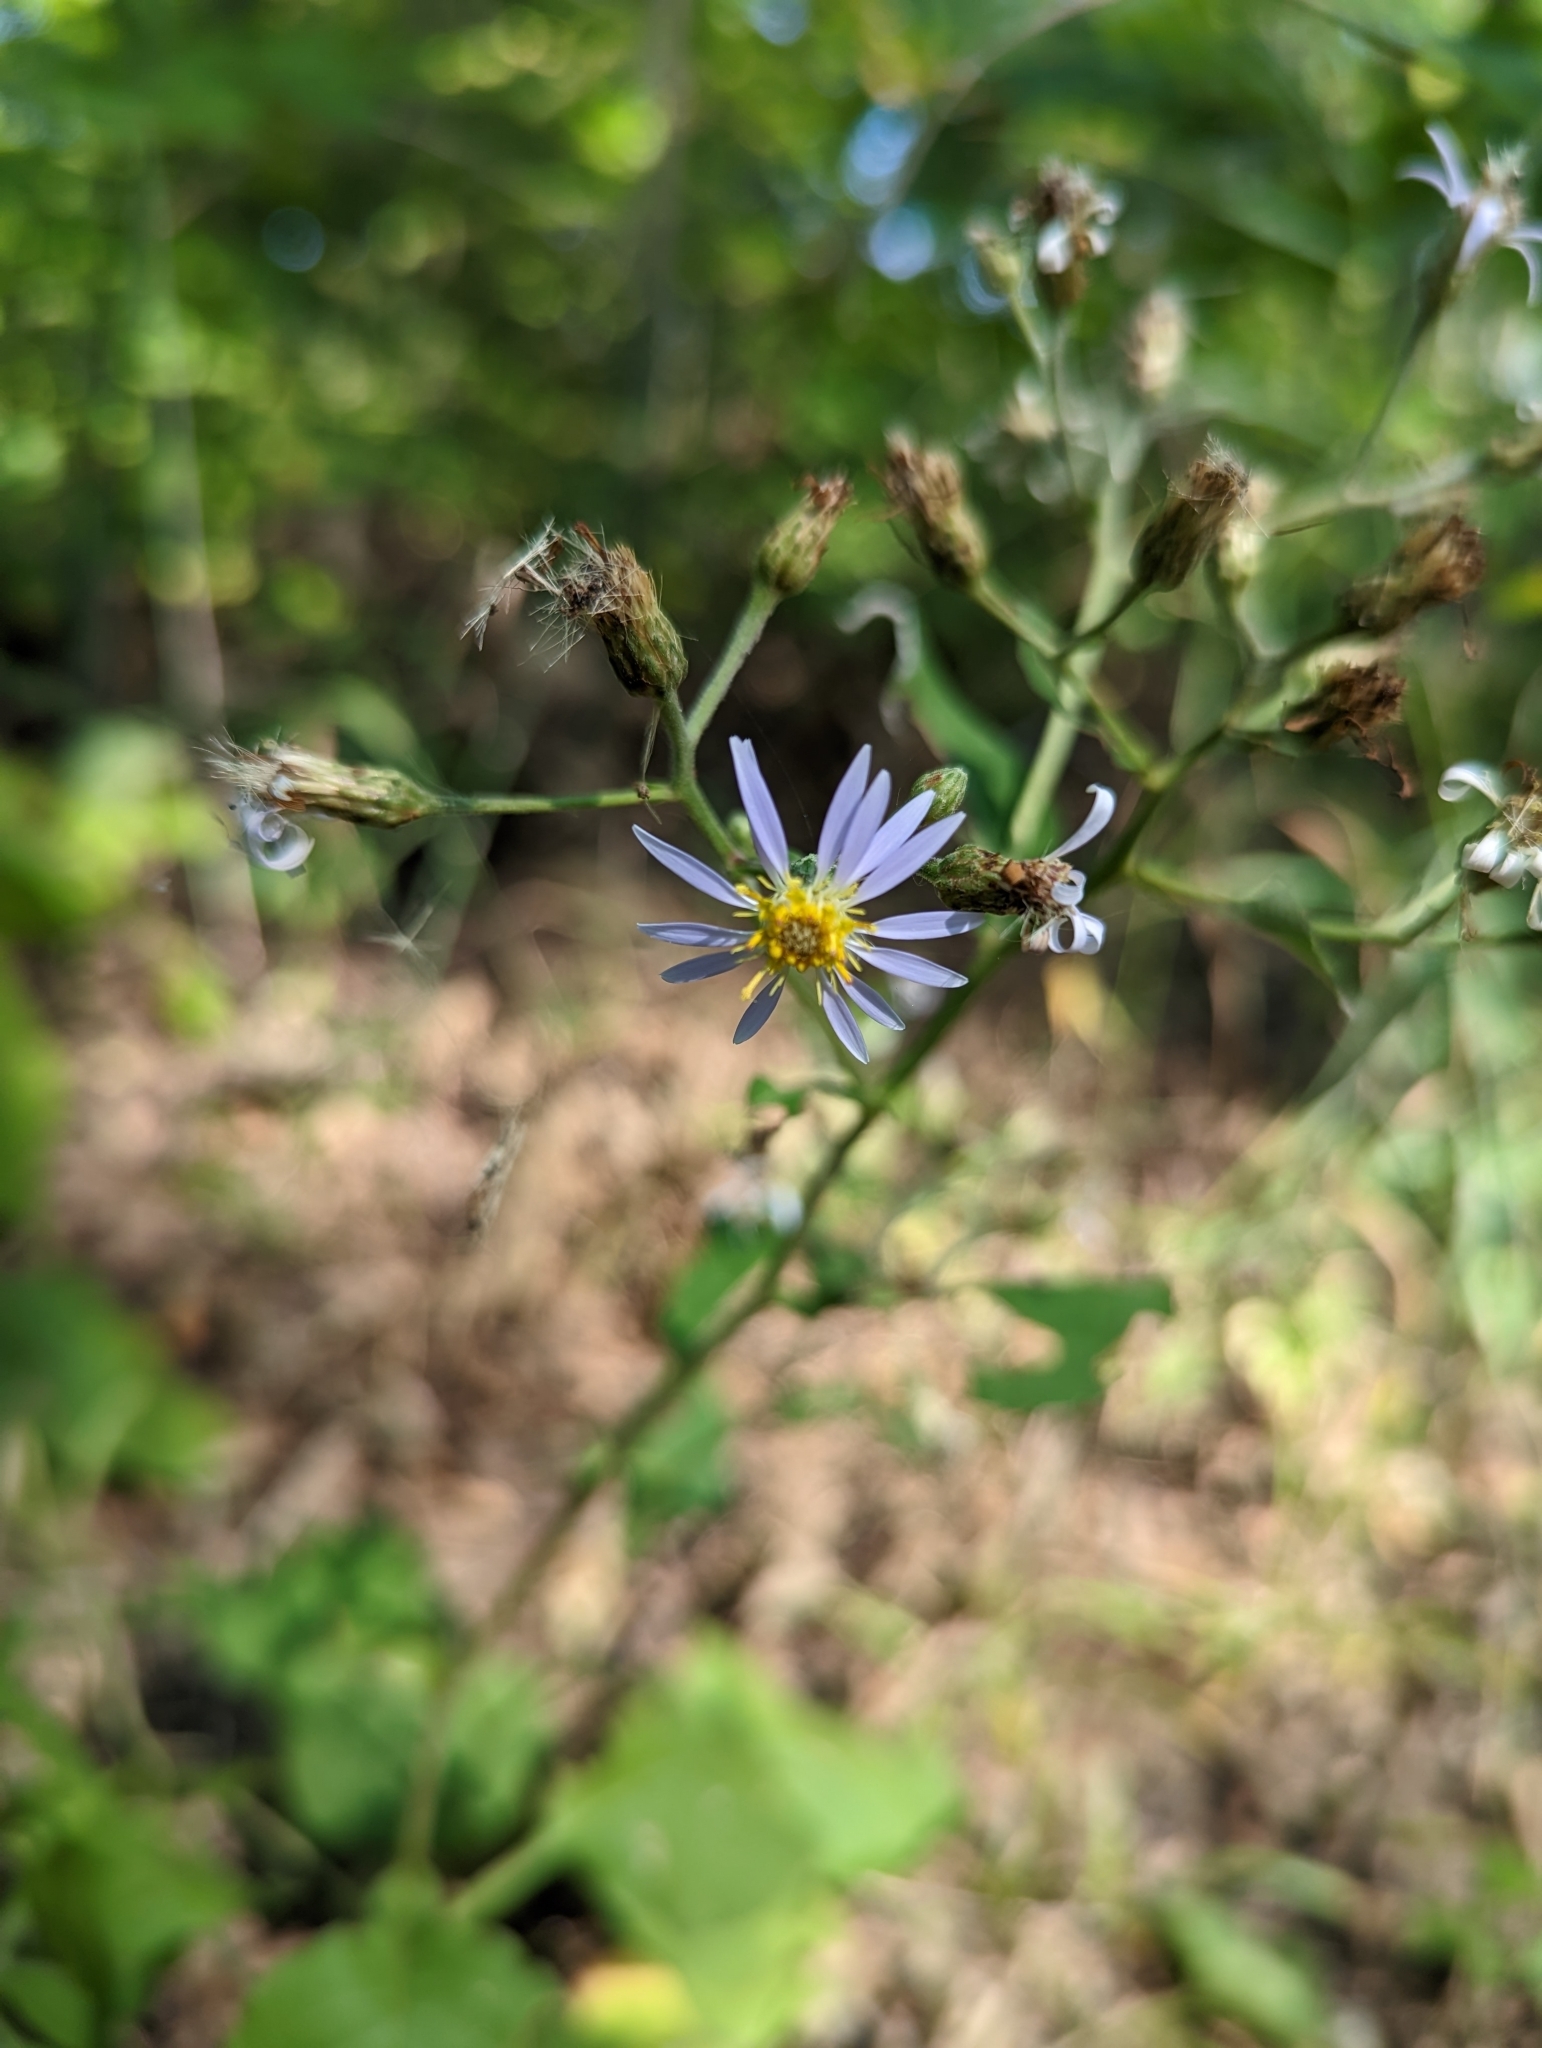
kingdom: Plantae
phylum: Tracheophyta
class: Magnoliopsida
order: Asterales
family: Asteraceae
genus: Eurybia
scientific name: Eurybia macrophylla
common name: Big-leaved aster
